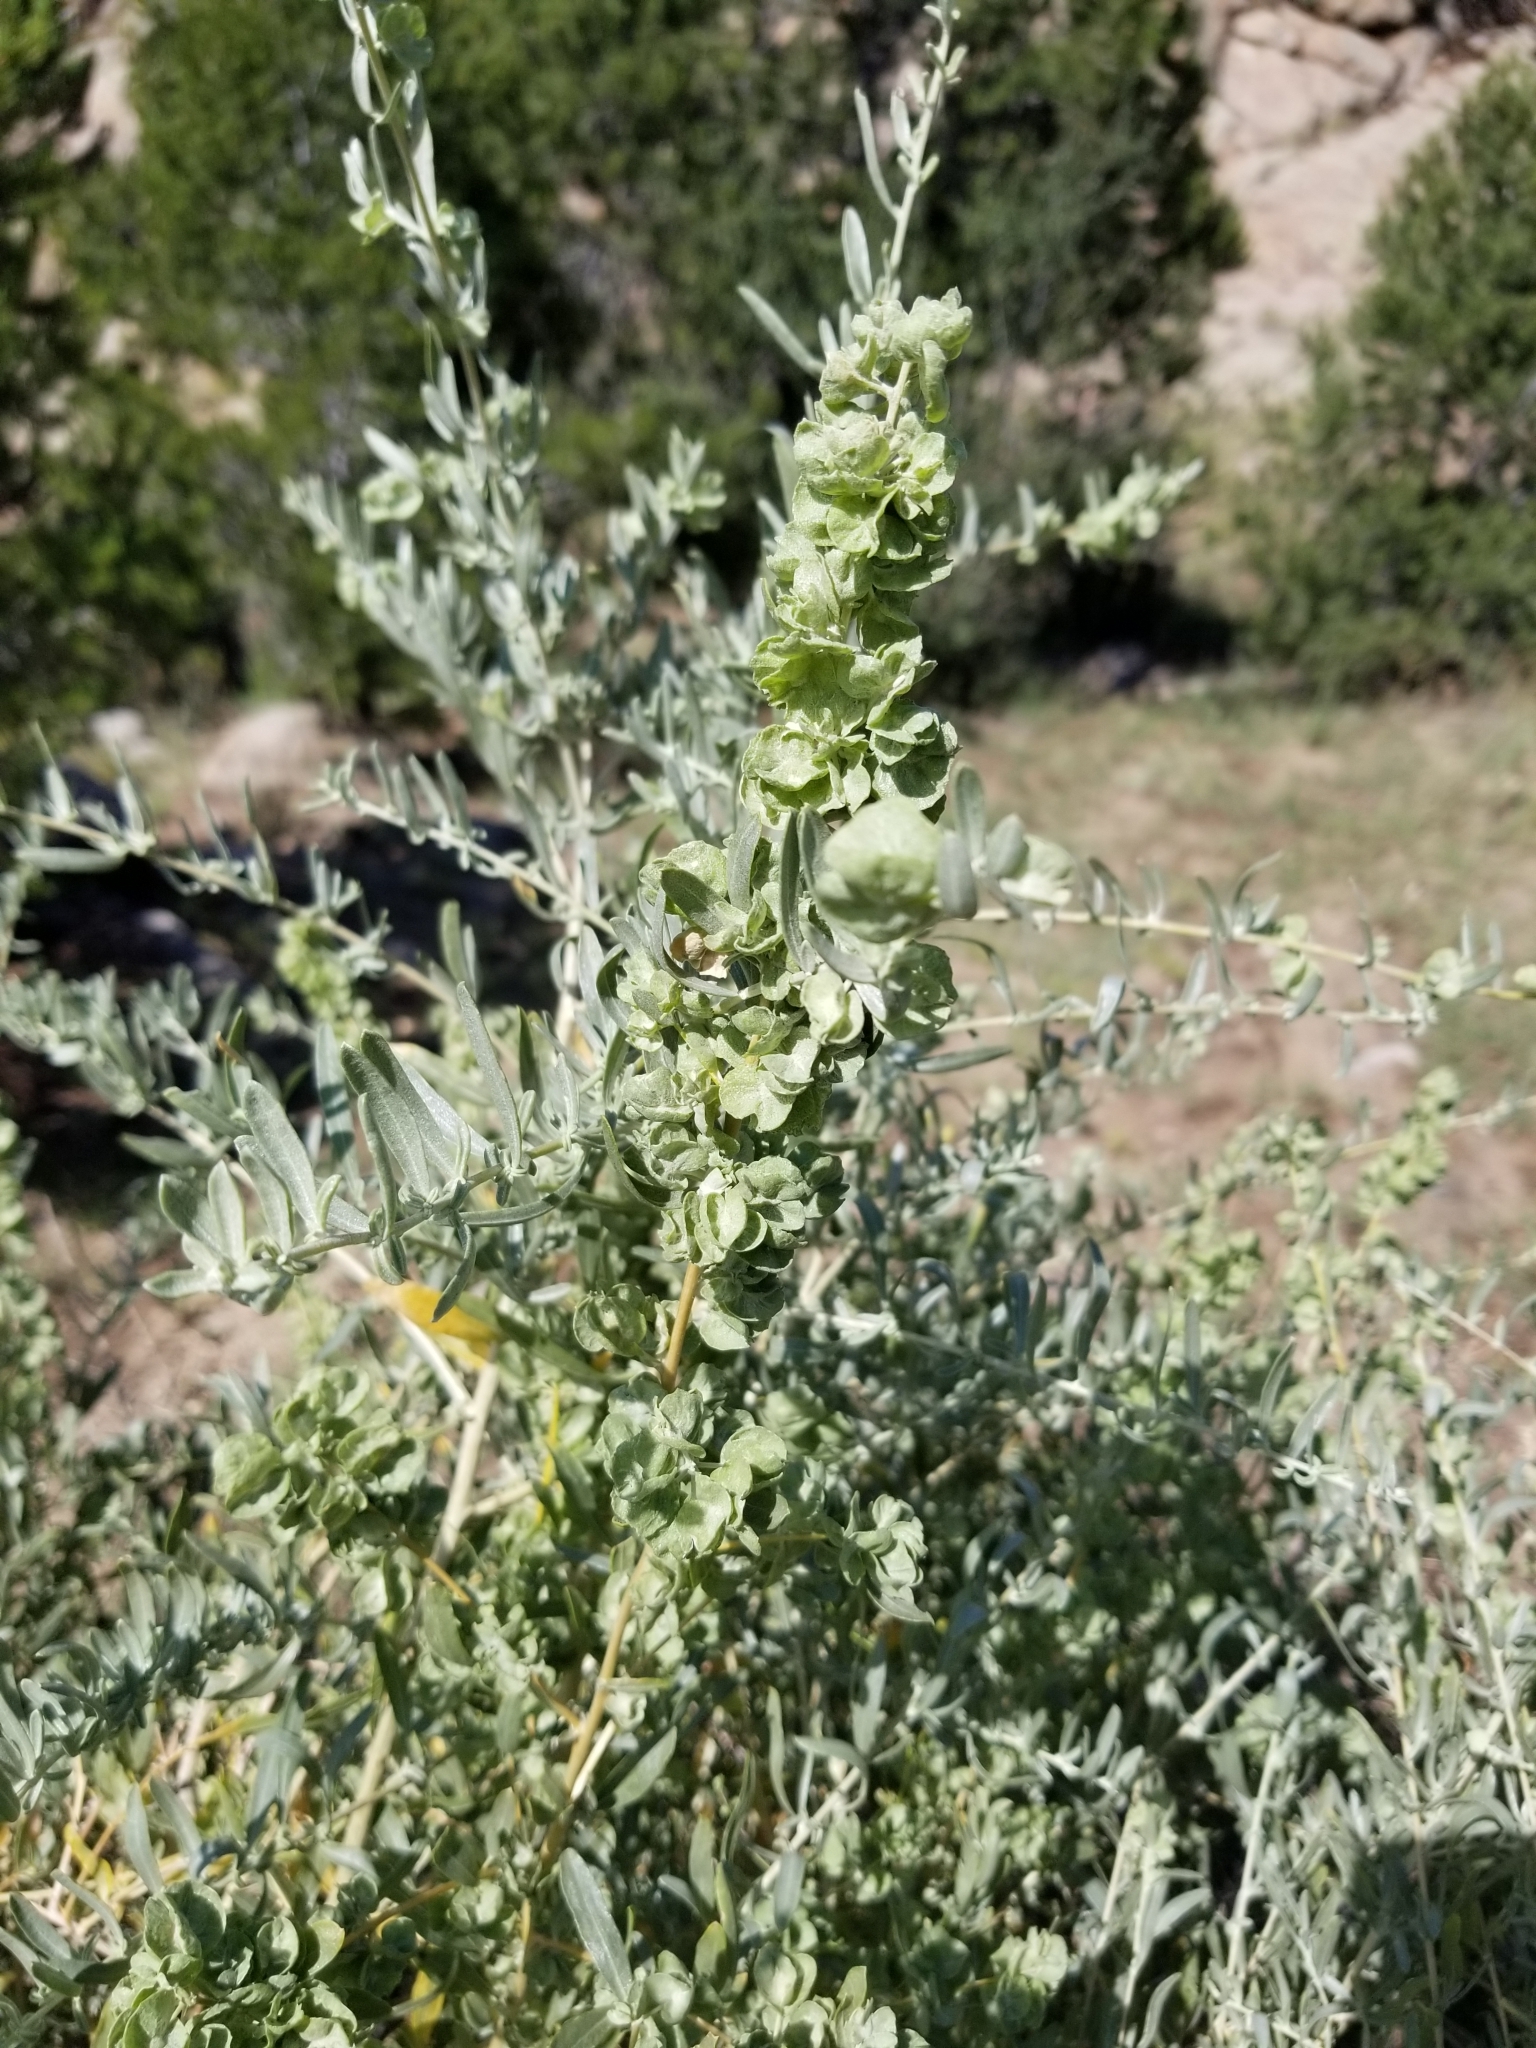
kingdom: Plantae
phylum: Tracheophyta
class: Magnoliopsida
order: Caryophyllales
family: Amaranthaceae
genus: Atriplex
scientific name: Atriplex canescens
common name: Four-wing saltbush
